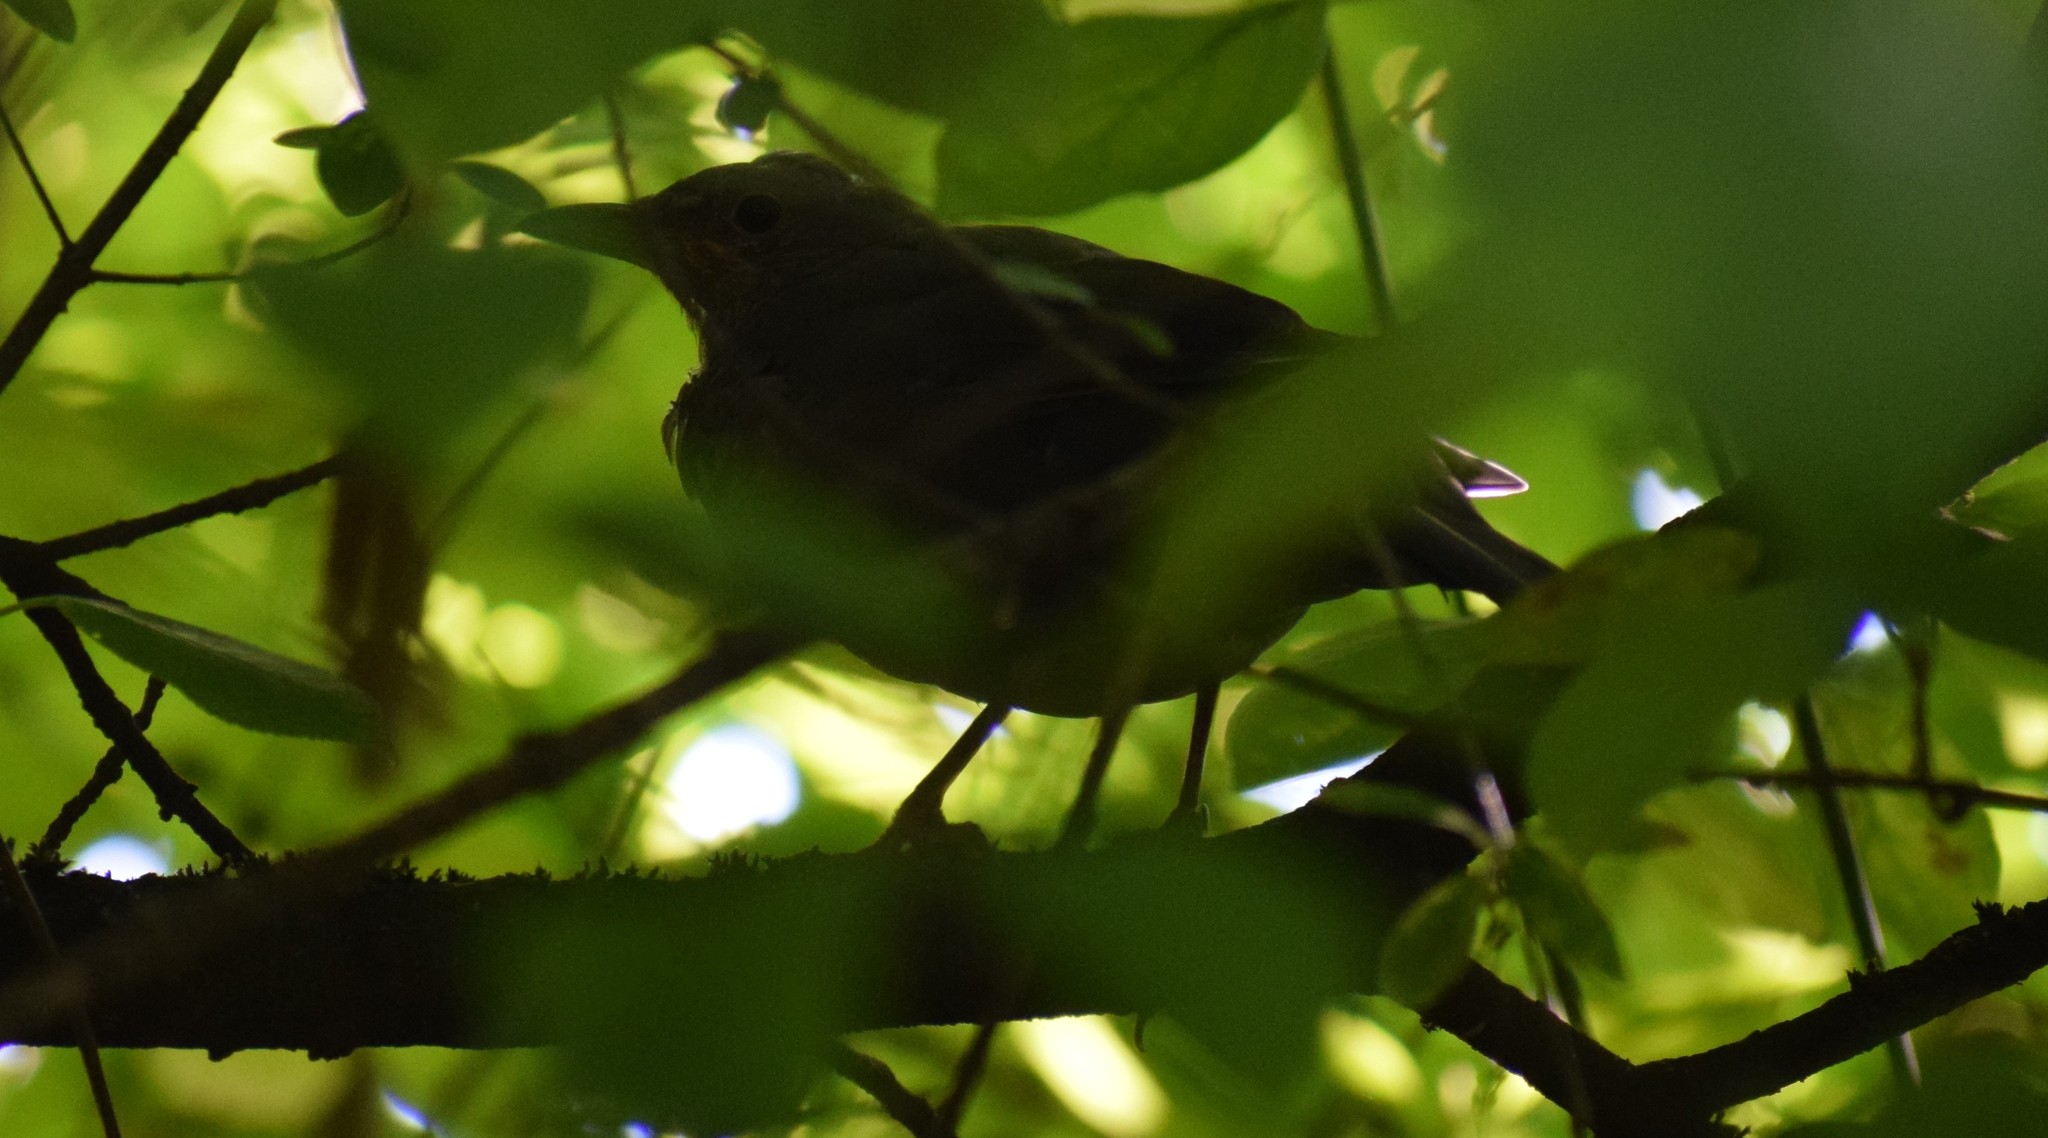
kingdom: Animalia
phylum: Chordata
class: Aves
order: Passeriformes
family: Turdidae
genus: Turdus
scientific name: Turdus merula
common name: Common blackbird
